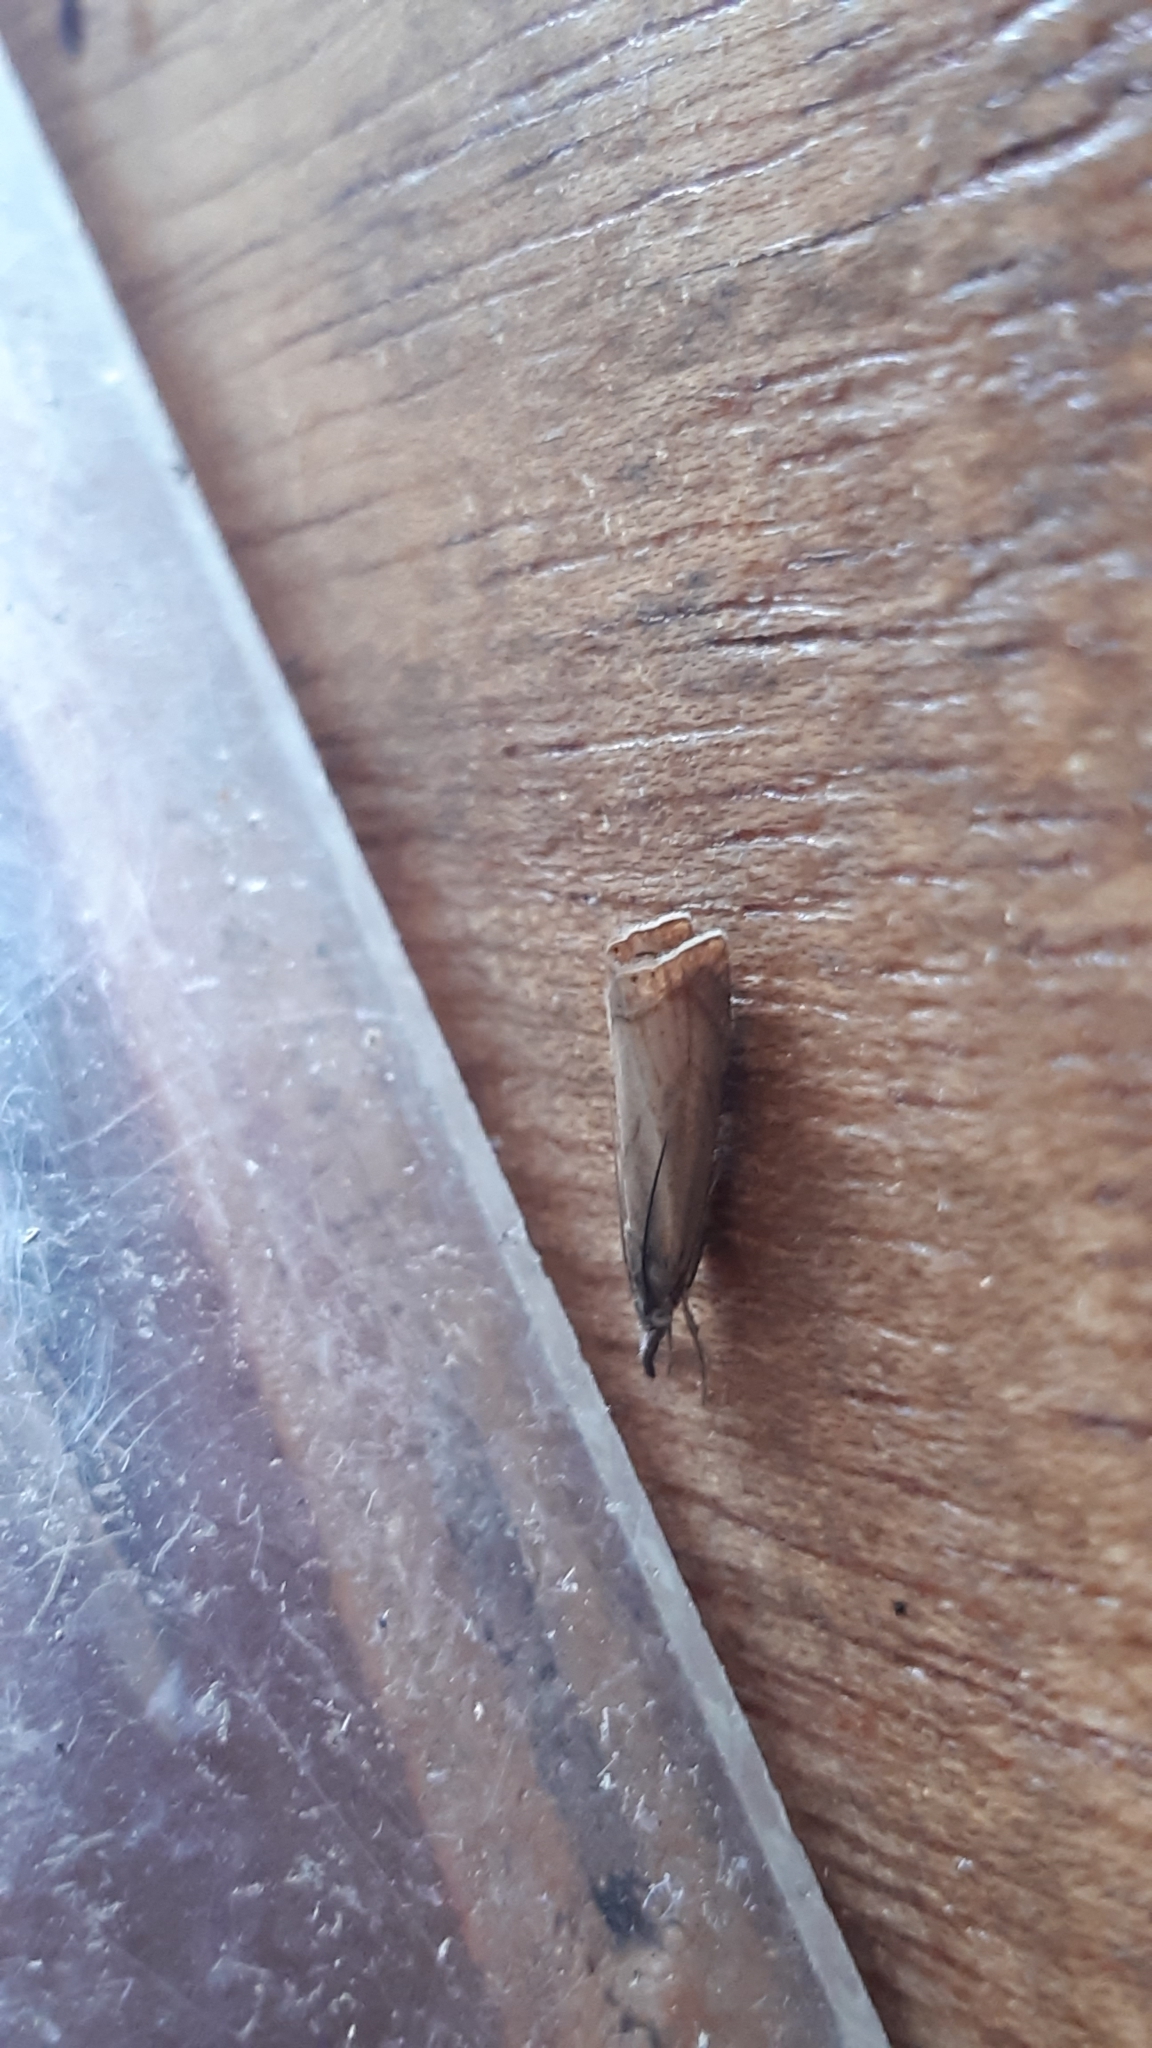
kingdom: Animalia
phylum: Arthropoda
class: Insecta
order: Lepidoptera
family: Crambidae
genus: Chrysoteuchia
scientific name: Chrysoteuchia culmella
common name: Garden grass-veneer
